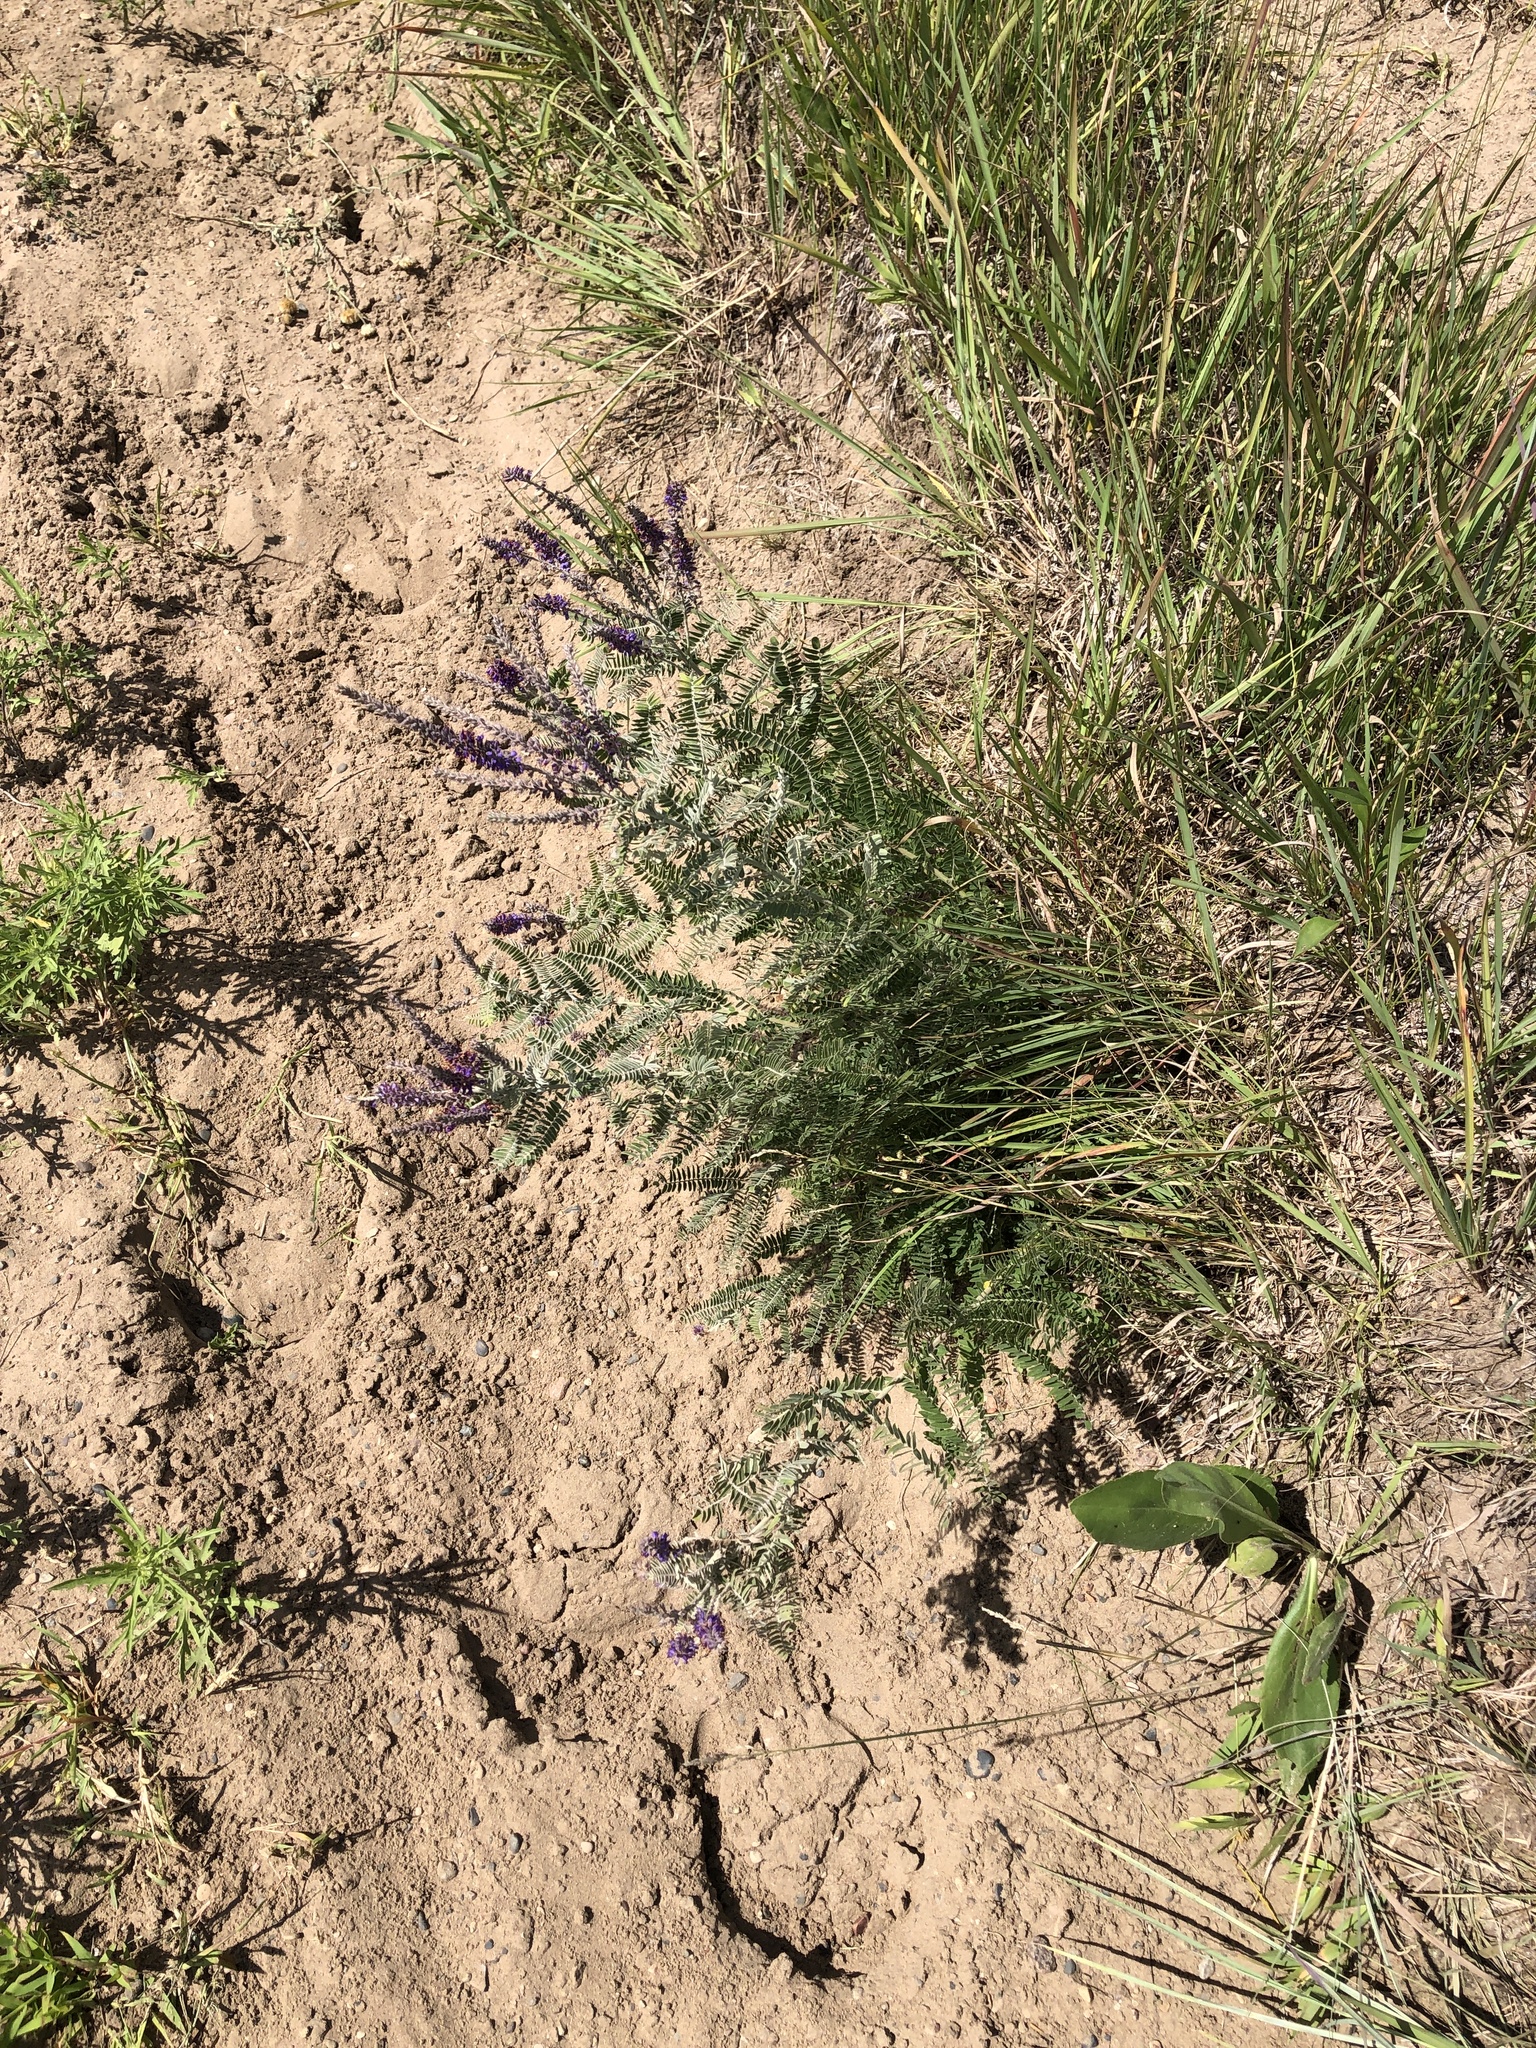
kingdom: Plantae
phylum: Tracheophyta
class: Magnoliopsida
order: Fabales
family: Fabaceae
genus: Amorpha
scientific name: Amorpha canescens
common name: Leadplant
